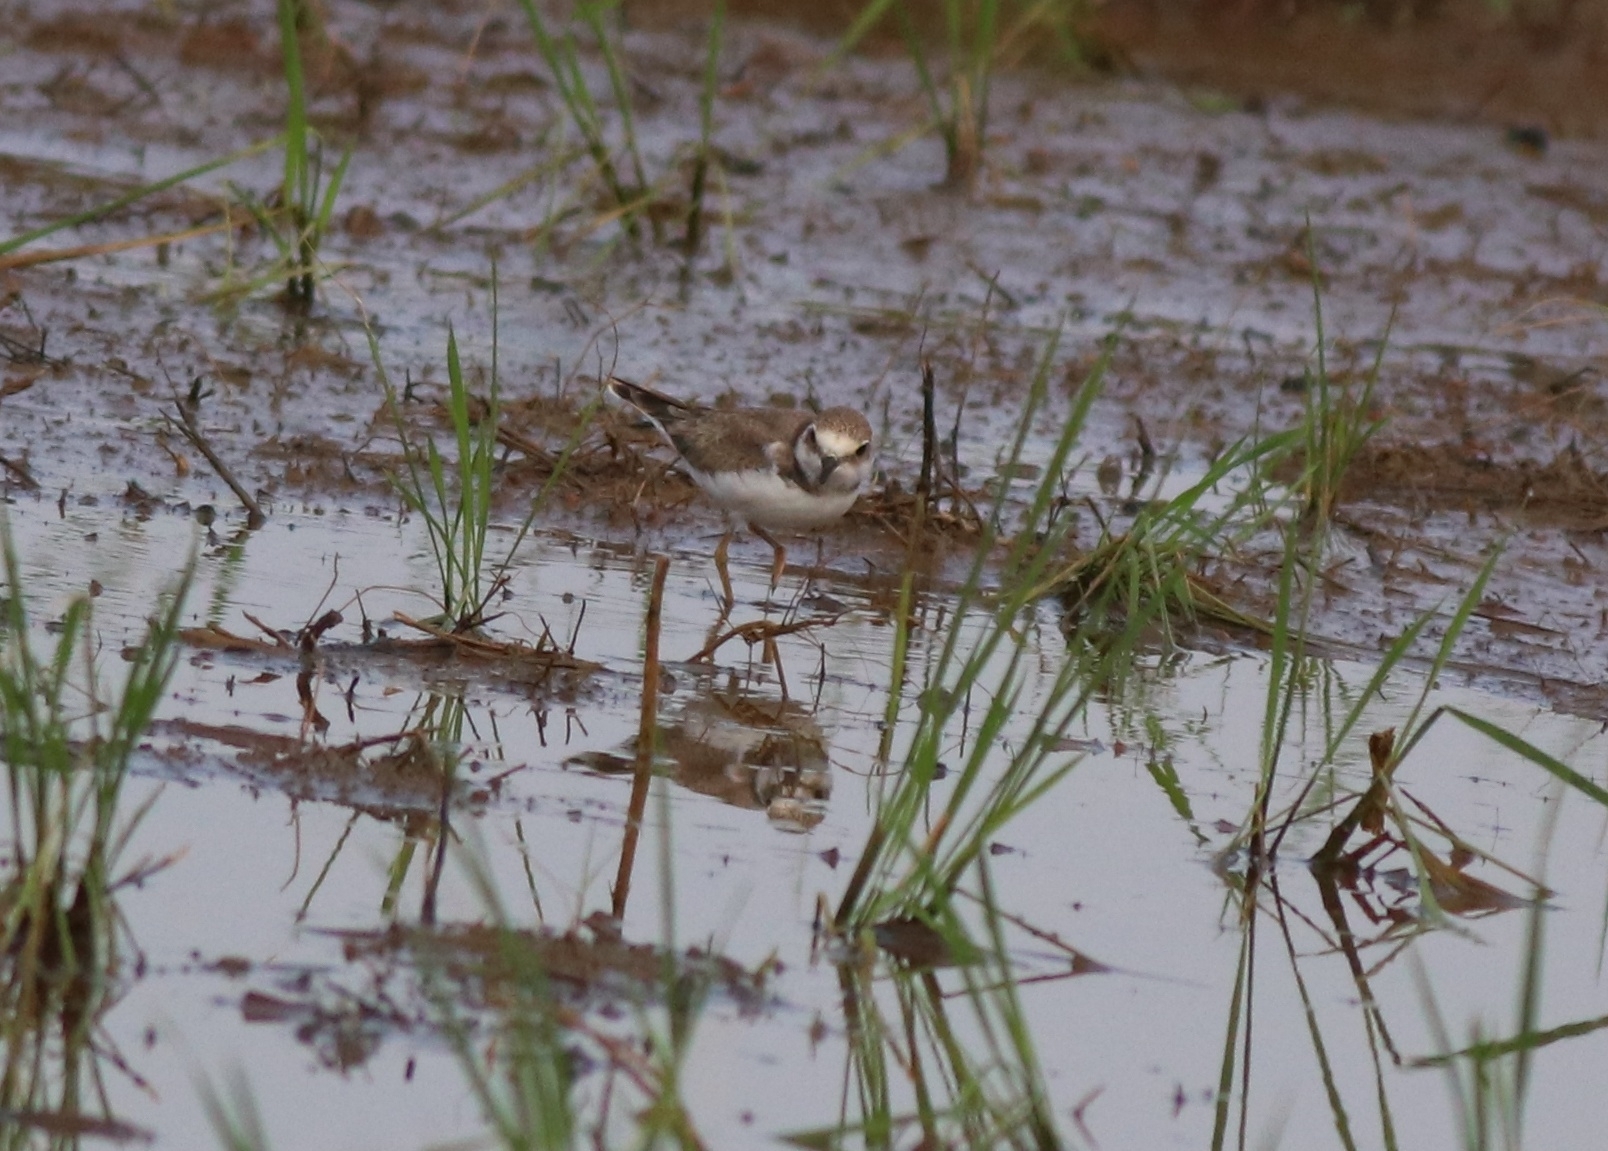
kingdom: Animalia
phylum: Chordata
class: Aves
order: Charadriiformes
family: Charadriidae
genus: Charadrius
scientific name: Charadrius dubius
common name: Little ringed plover
